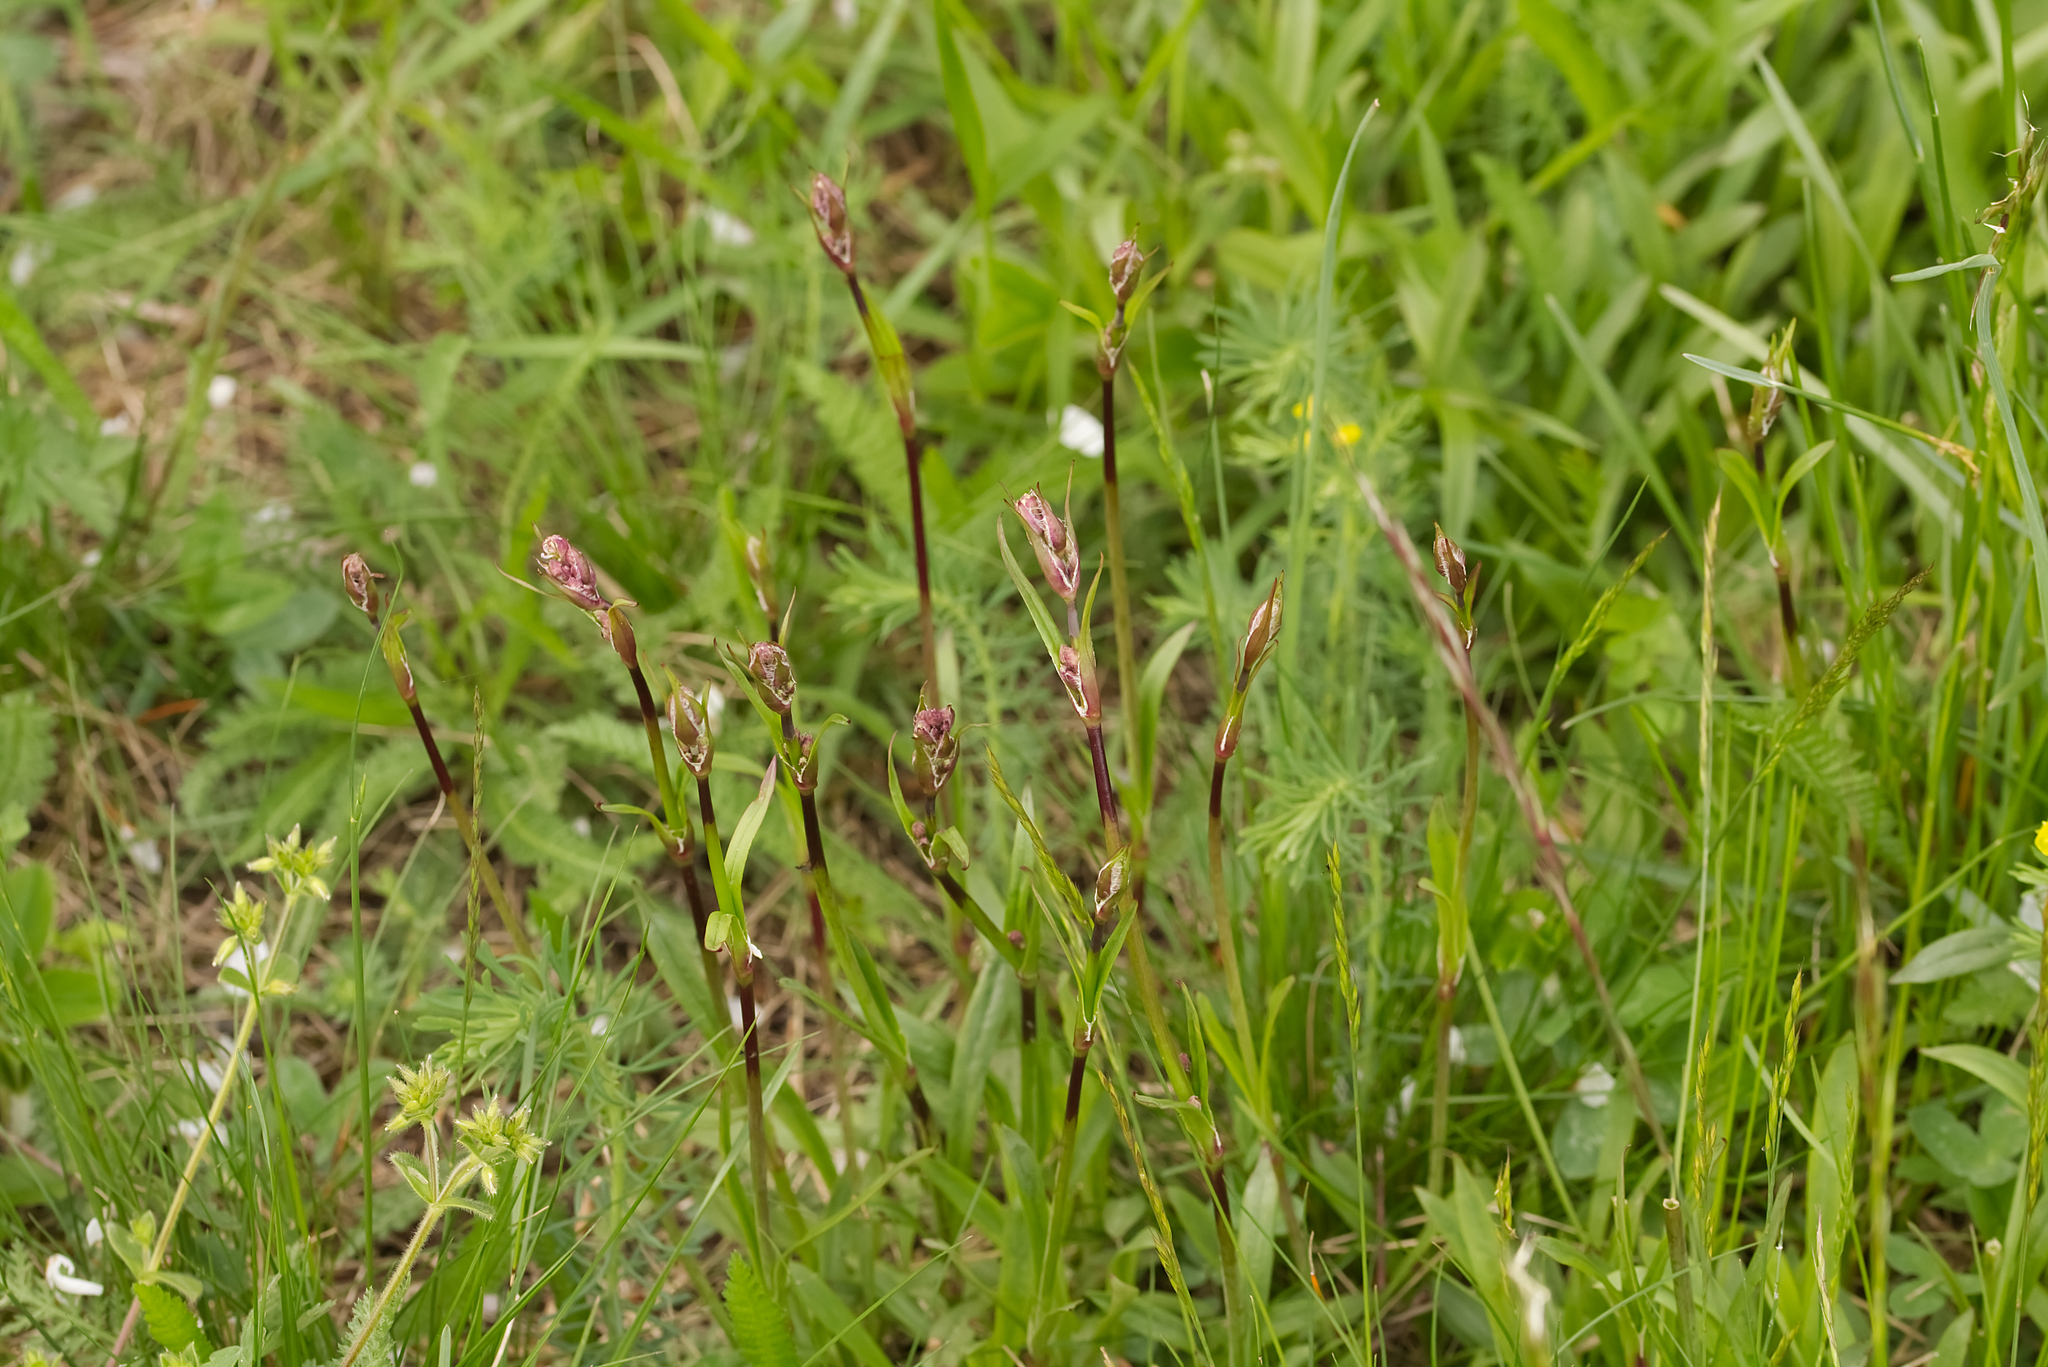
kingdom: Plantae
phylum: Tracheophyta
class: Magnoliopsida
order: Caryophyllales
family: Caryophyllaceae
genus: Viscaria
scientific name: Viscaria vulgaris
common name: Clammy campion
